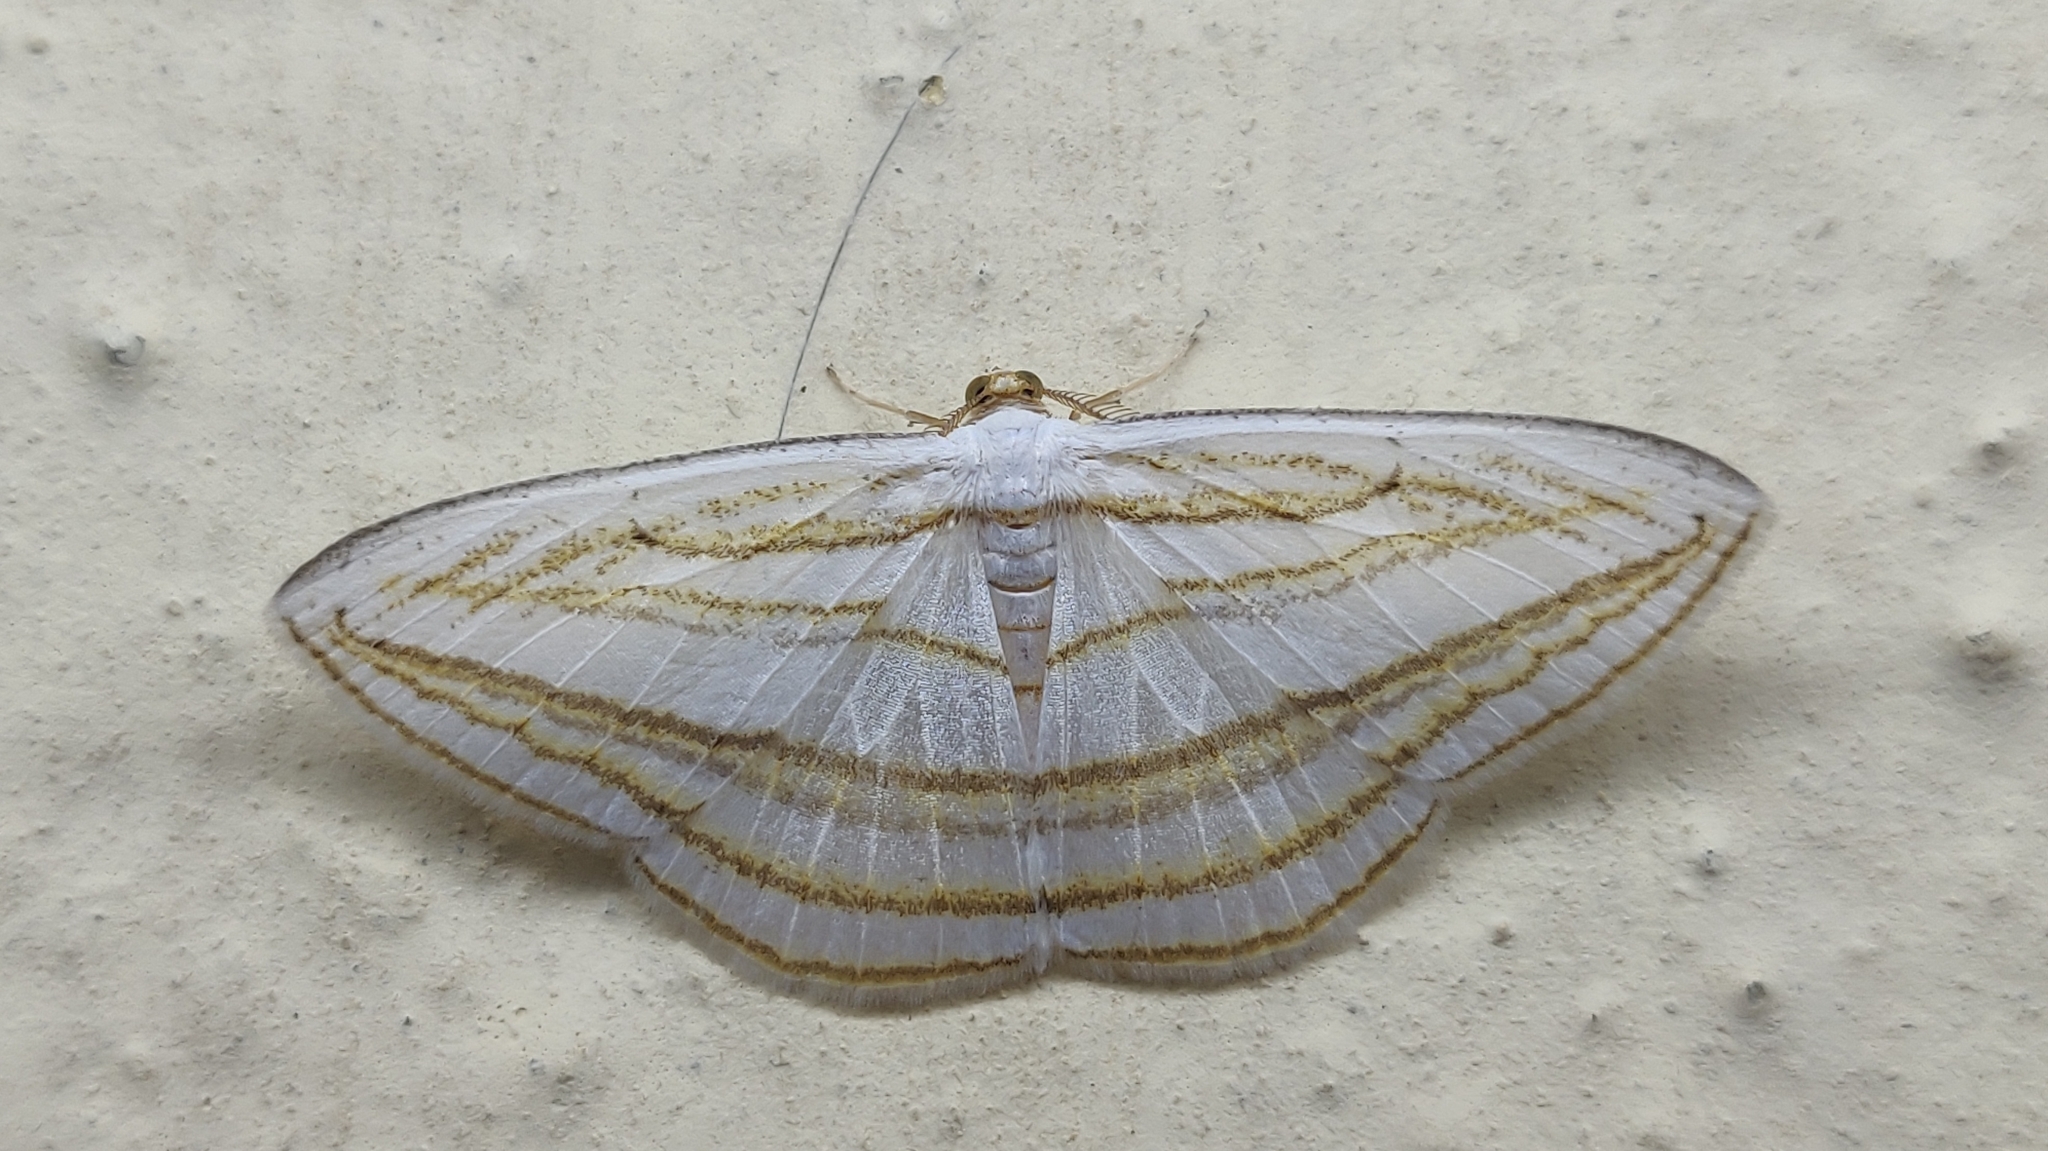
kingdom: Animalia
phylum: Arthropoda
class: Insecta
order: Lepidoptera
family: Geometridae
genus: Orthocabera
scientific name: Orthocabera sericea
